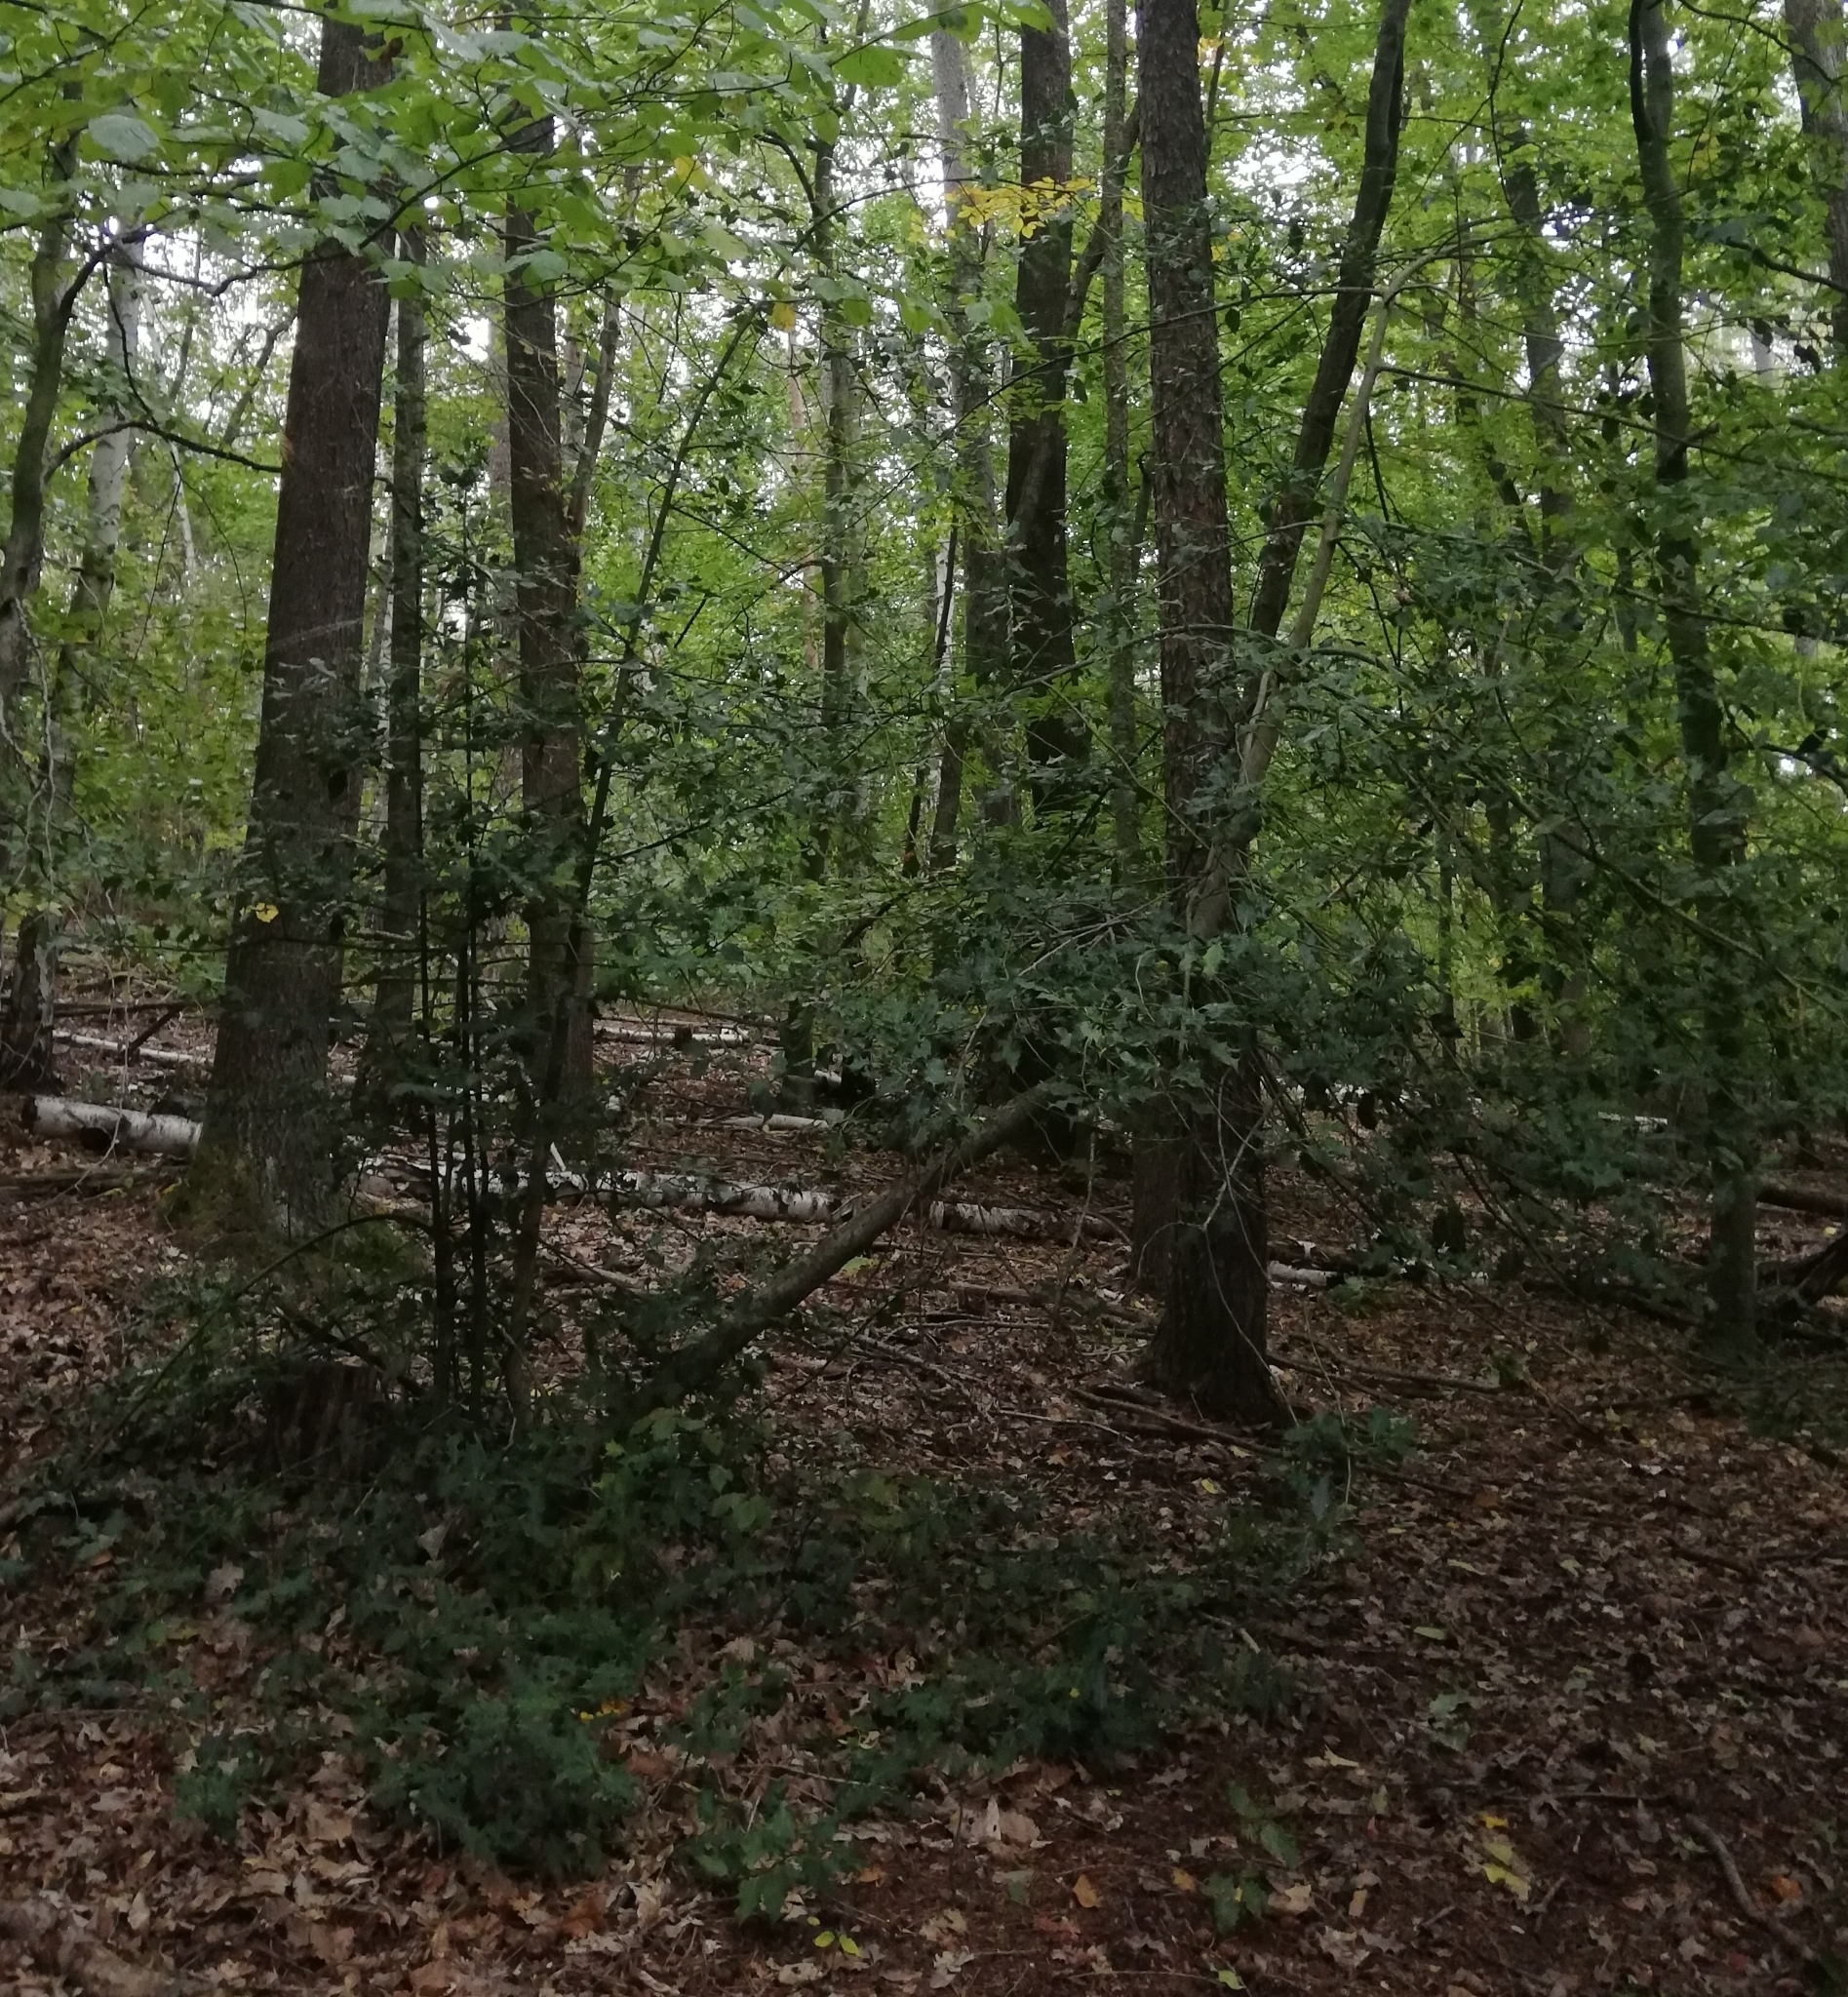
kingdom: Plantae
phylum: Tracheophyta
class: Magnoliopsida
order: Aquifoliales
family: Aquifoliaceae
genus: Ilex
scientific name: Ilex aquifolium
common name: English holly
